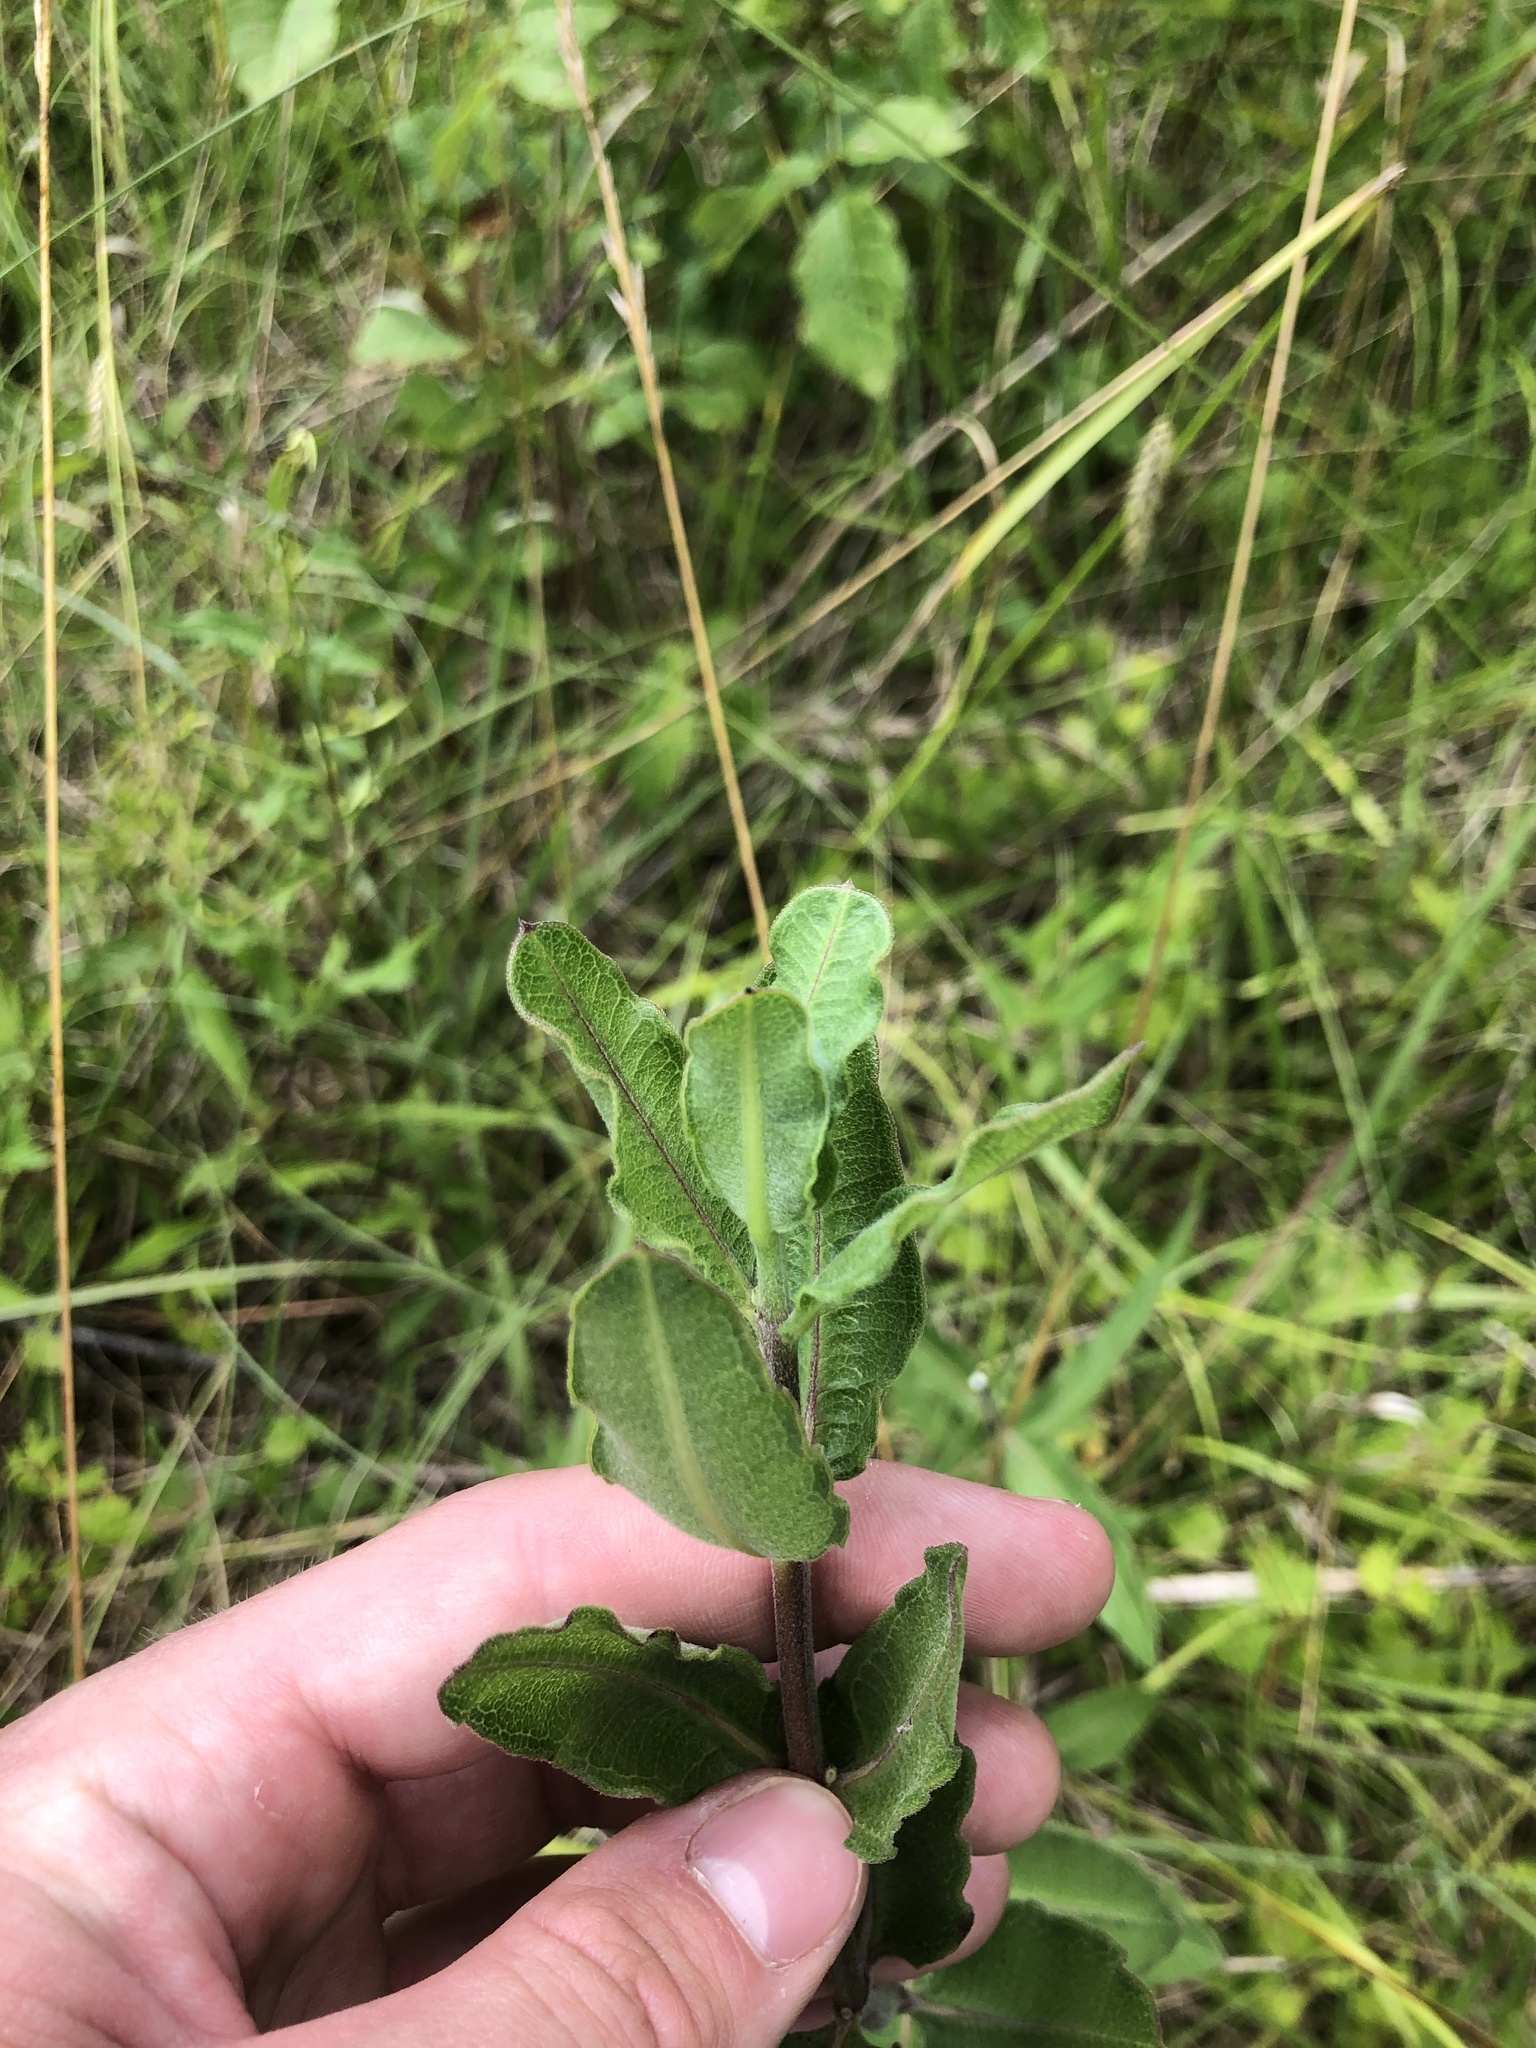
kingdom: Plantae
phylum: Tracheophyta
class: Magnoliopsida
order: Gentianales
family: Apocynaceae
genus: Asclepias
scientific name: Asclepias viridiflora
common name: Green comet milkweed
